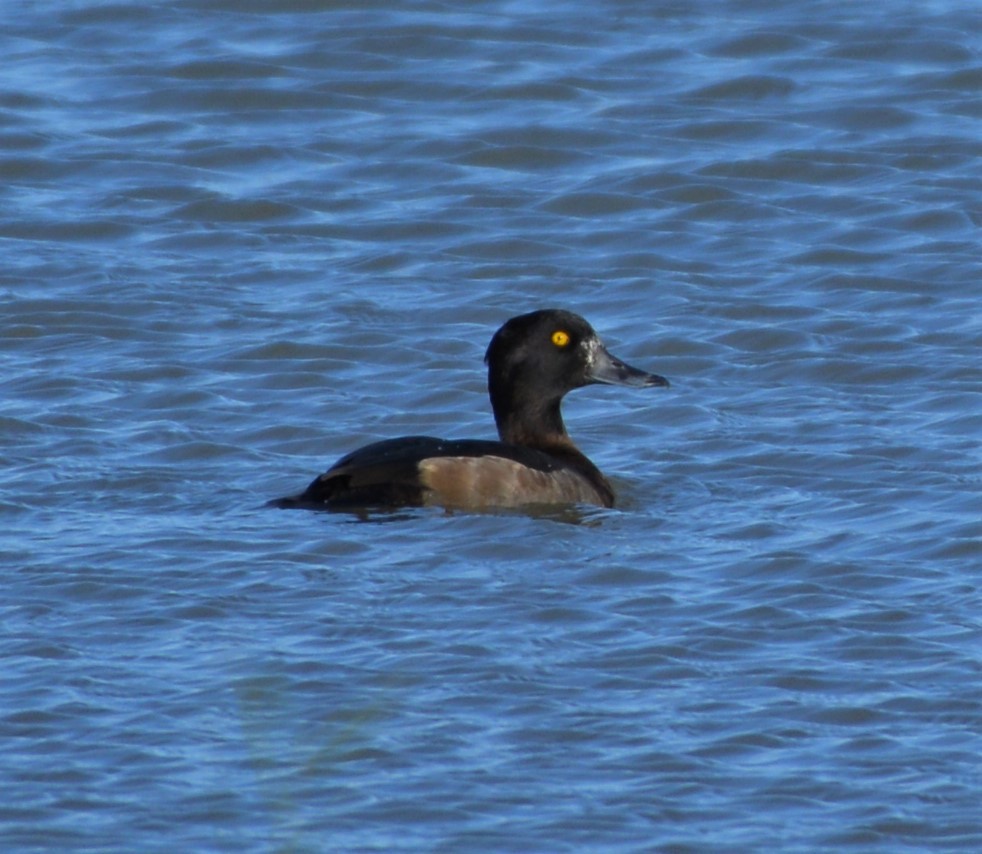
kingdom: Animalia
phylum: Chordata
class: Aves
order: Anseriformes
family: Anatidae
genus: Aythya
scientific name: Aythya fuligula
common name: Tufted duck
